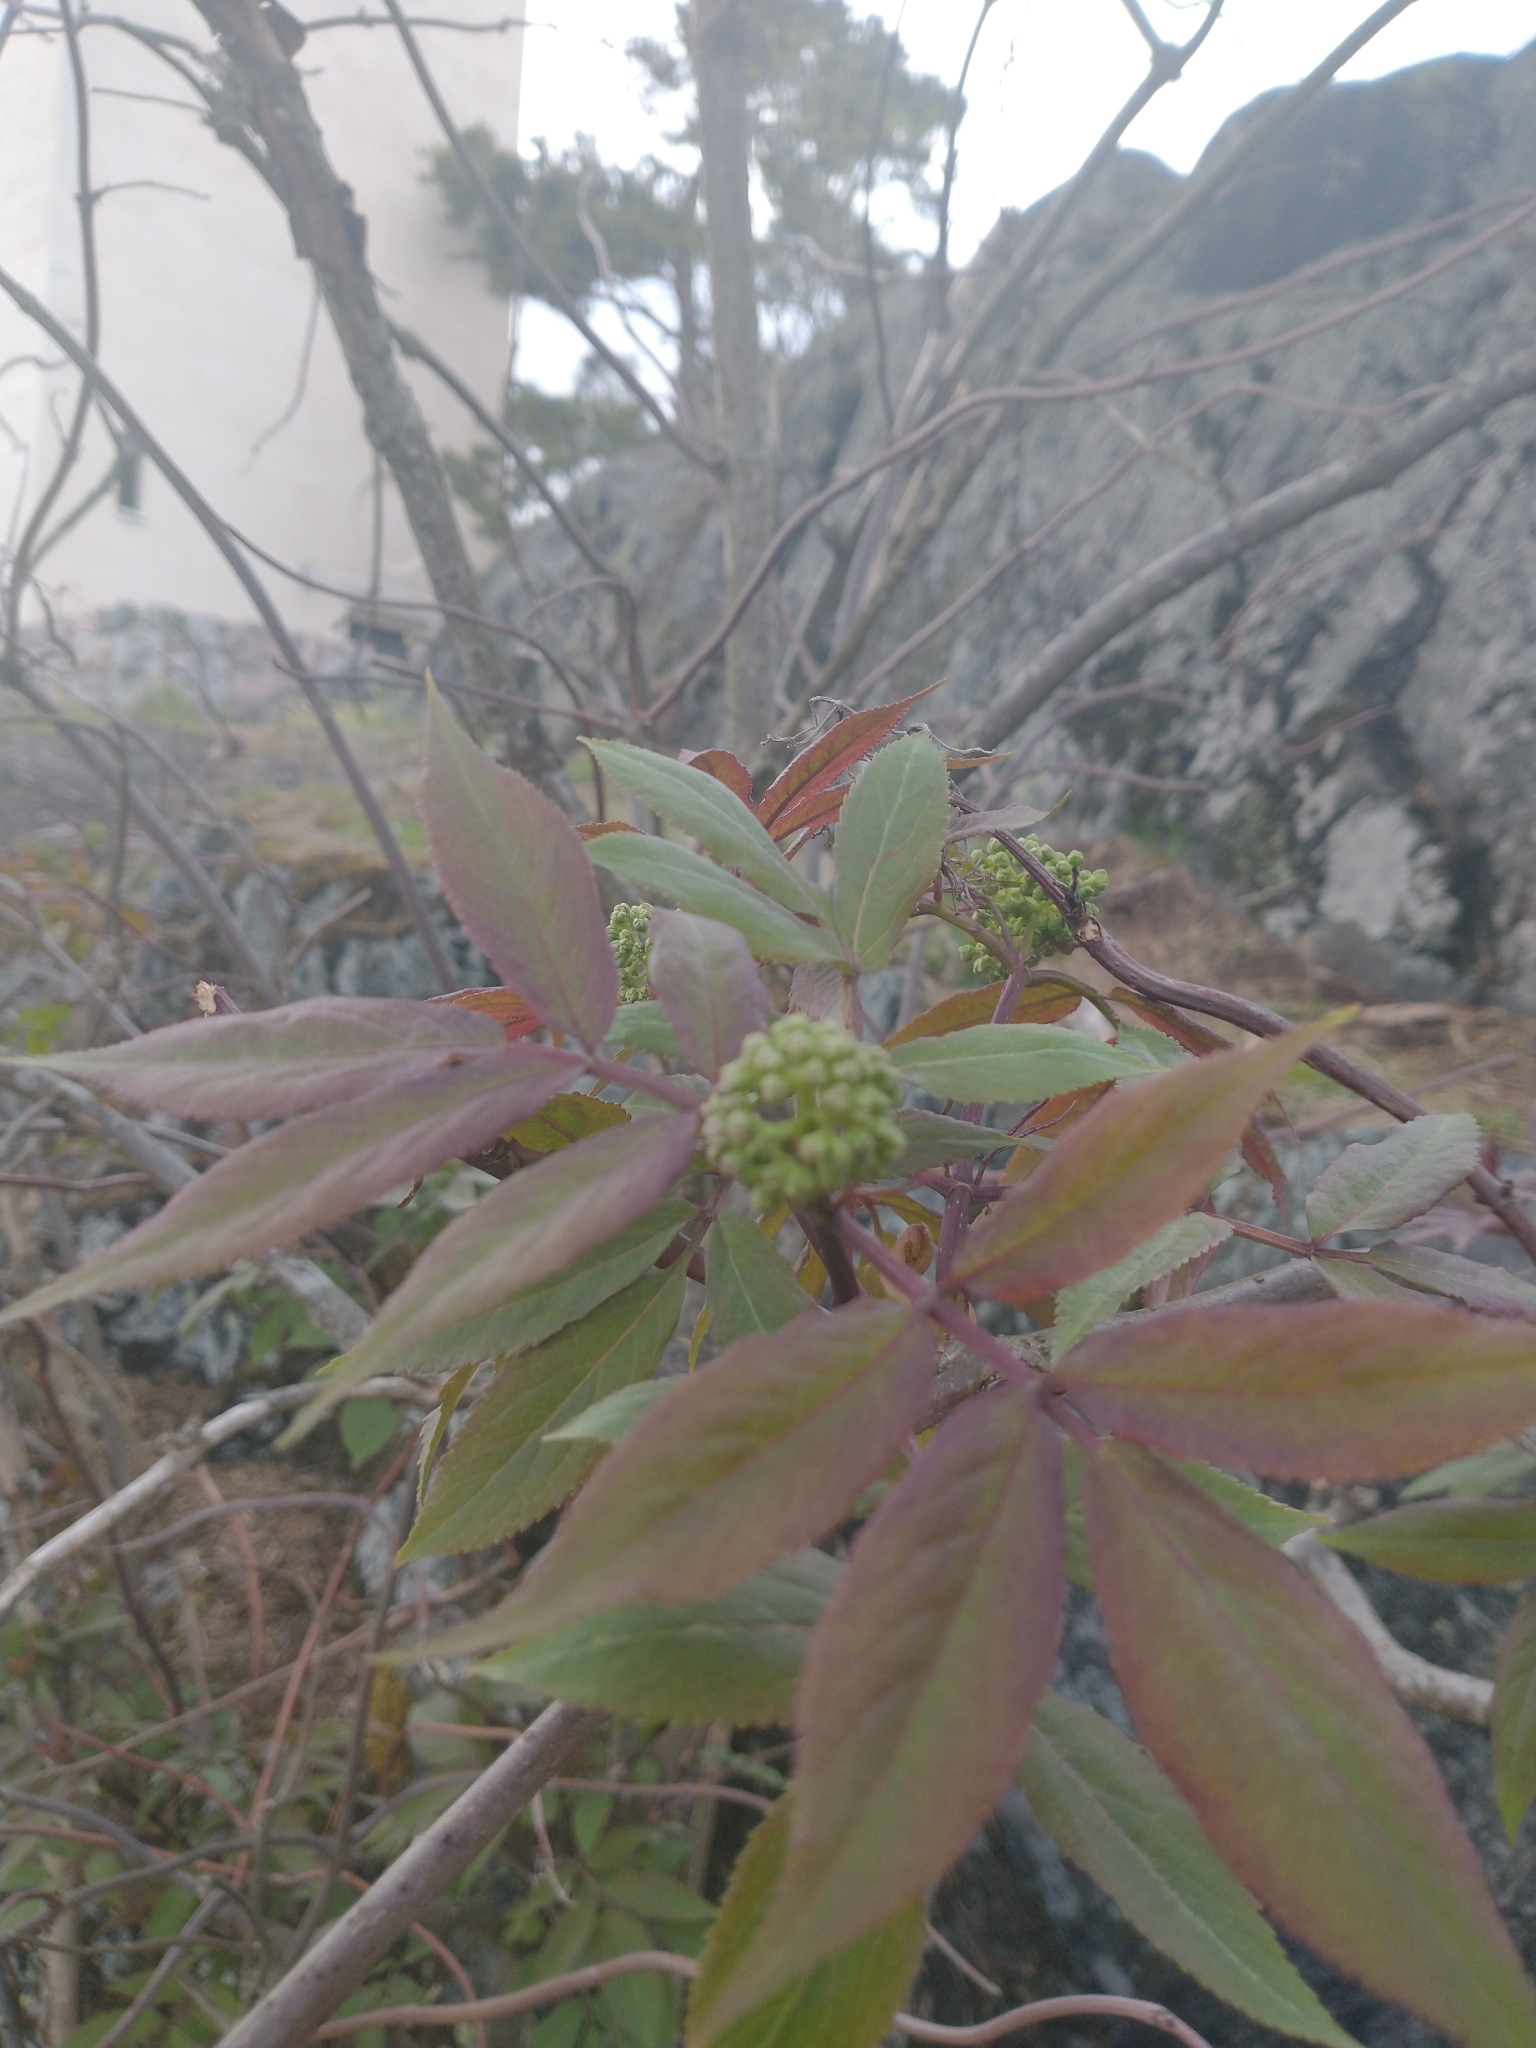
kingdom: Plantae
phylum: Tracheophyta
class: Magnoliopsida
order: Dipsacales
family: Viburnaceae
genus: Sambucus
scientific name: Sambucus racemosa
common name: Red-berried elder
